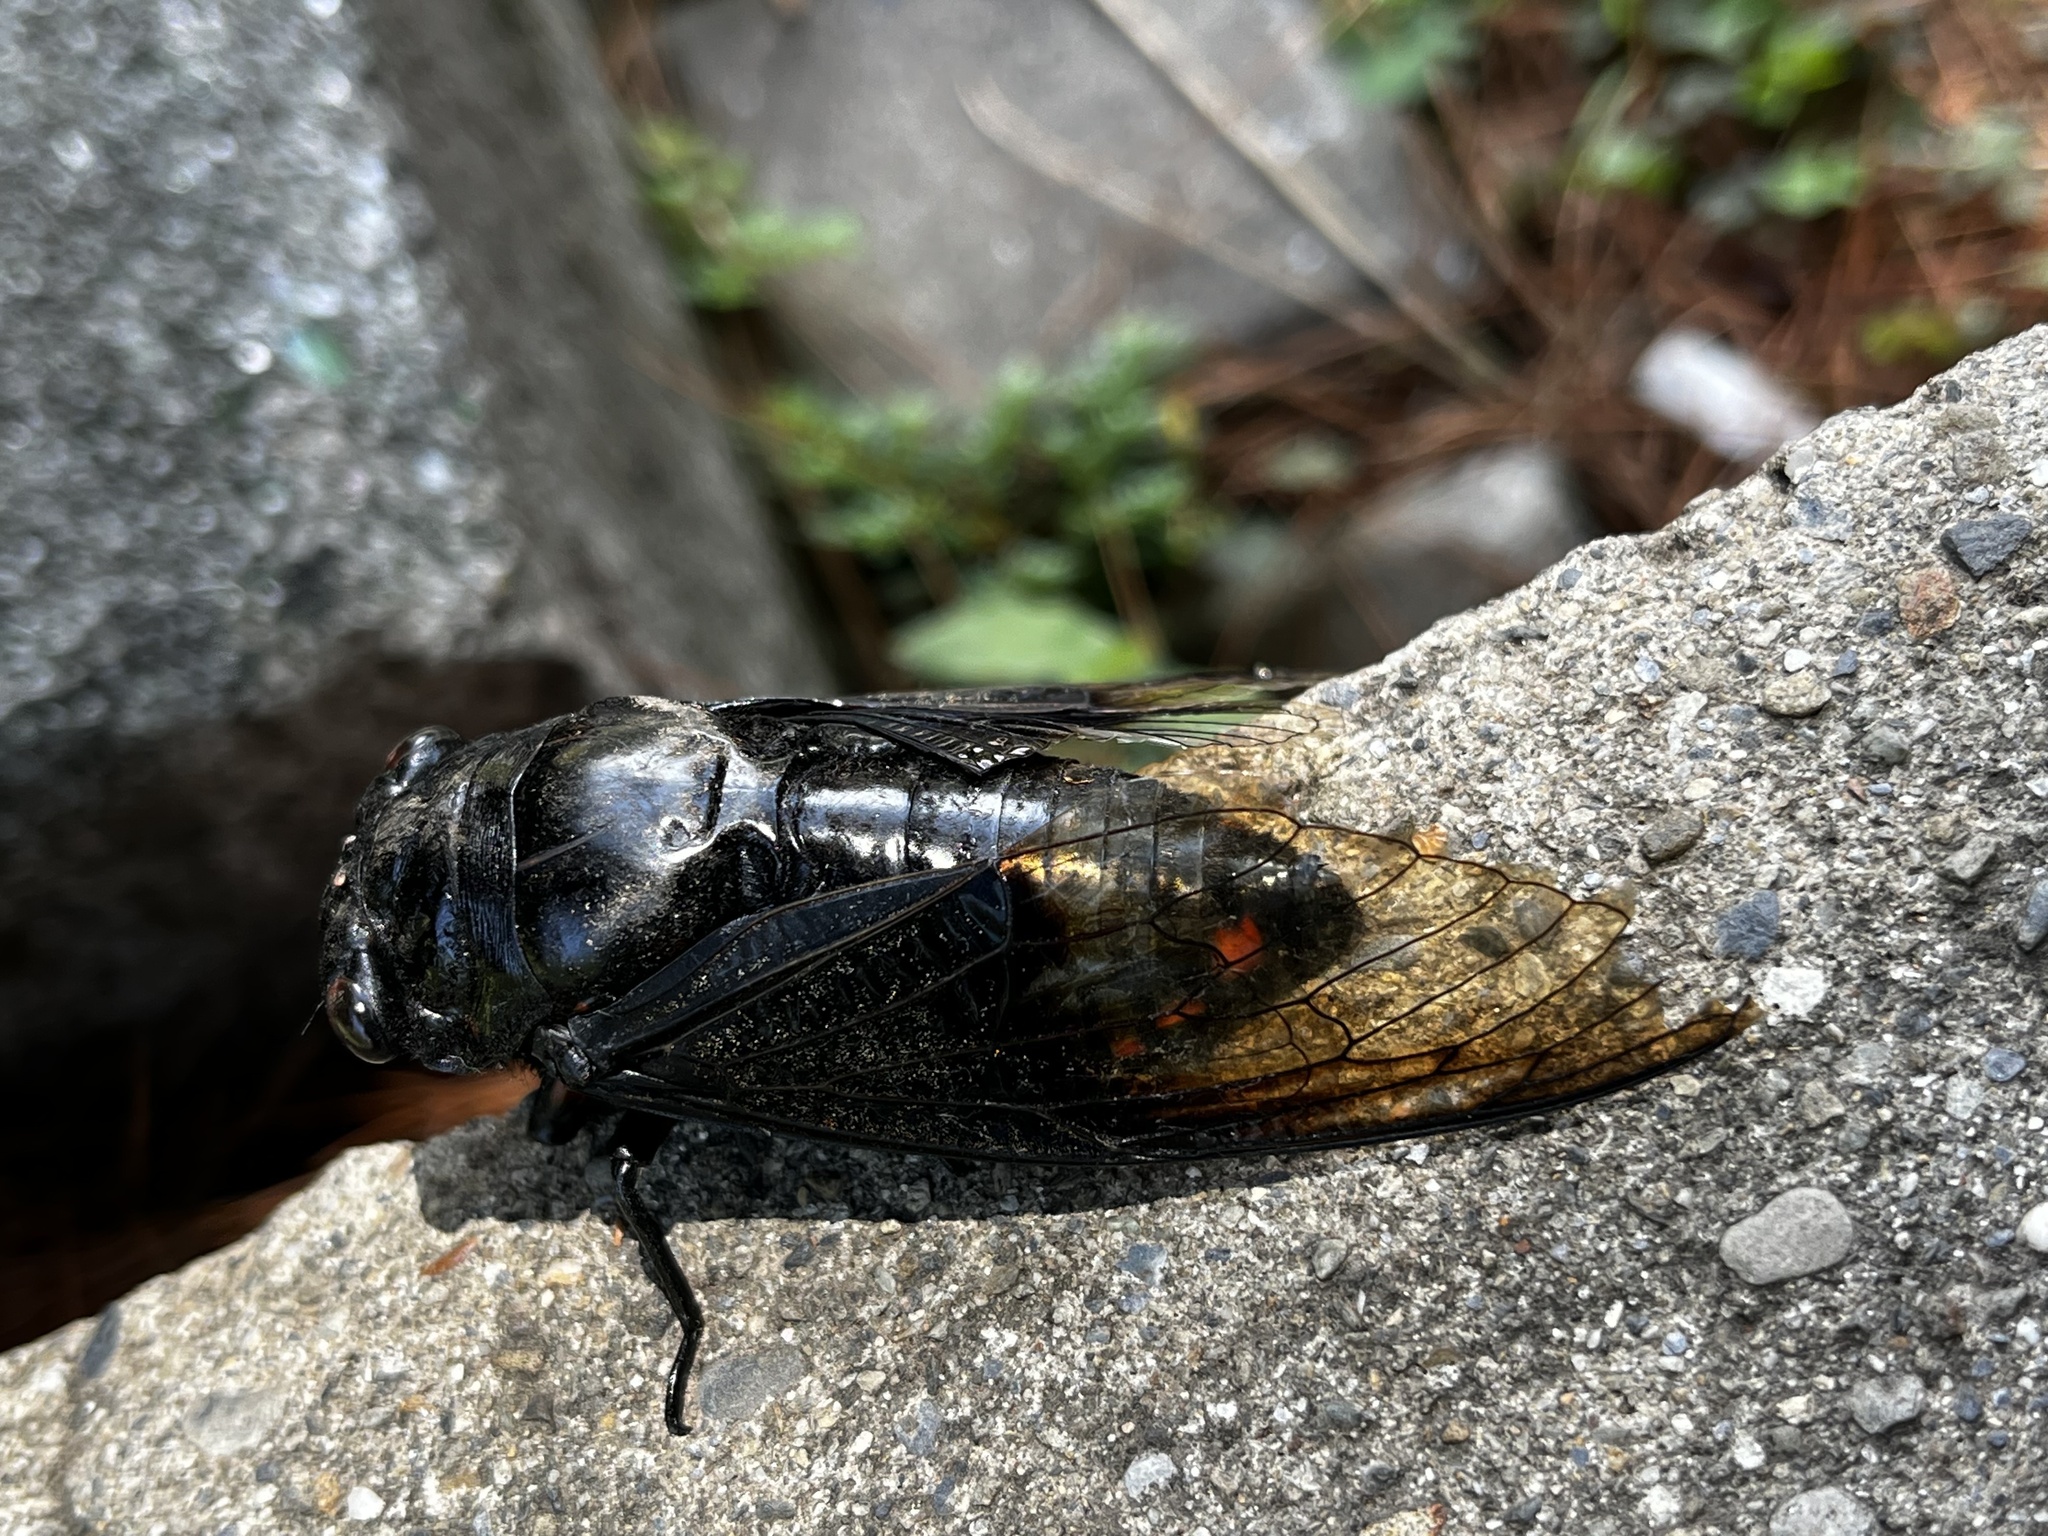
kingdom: Animalia
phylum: Arthropoda
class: Insecta
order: Hemiptera
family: Cicadidae
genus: Cryptotympana
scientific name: Cryptotympana holsti
